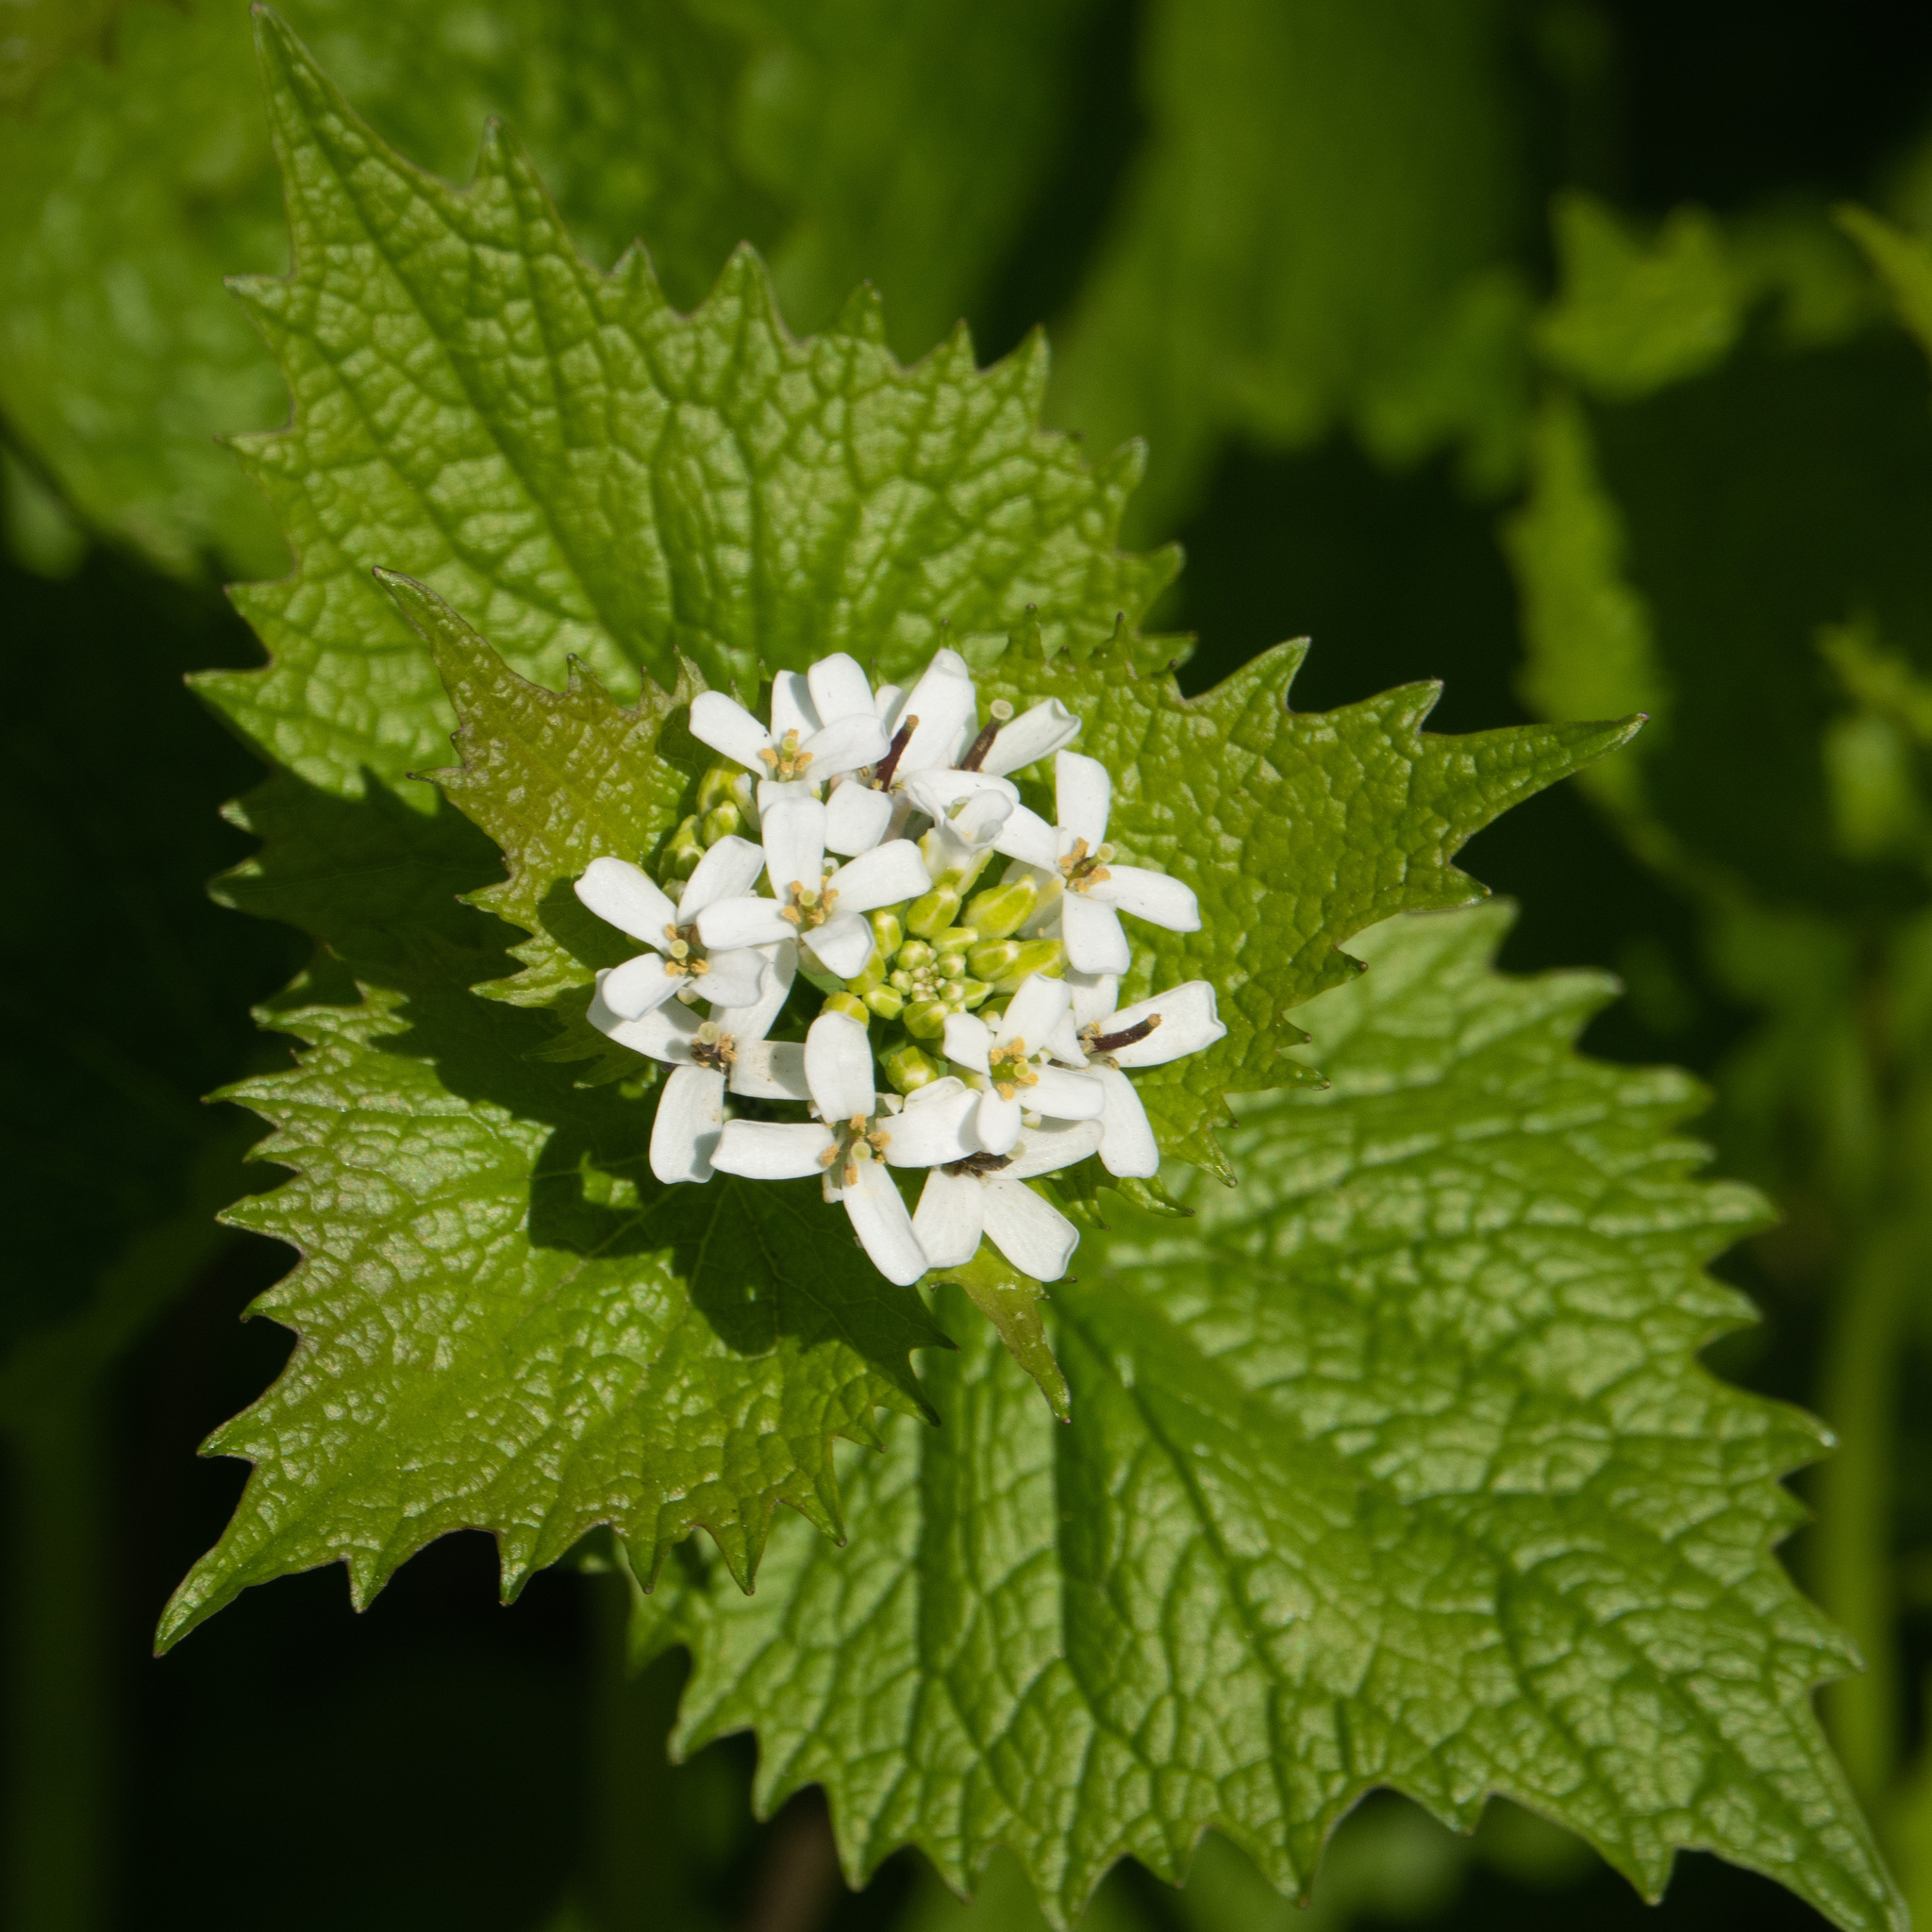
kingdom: Plantae
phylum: Tracheophyta
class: Magnoliopsida
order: Brassicales
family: Brassicaceae
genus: Alliaria
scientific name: Alliaria petiolata
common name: Garlic mustard
